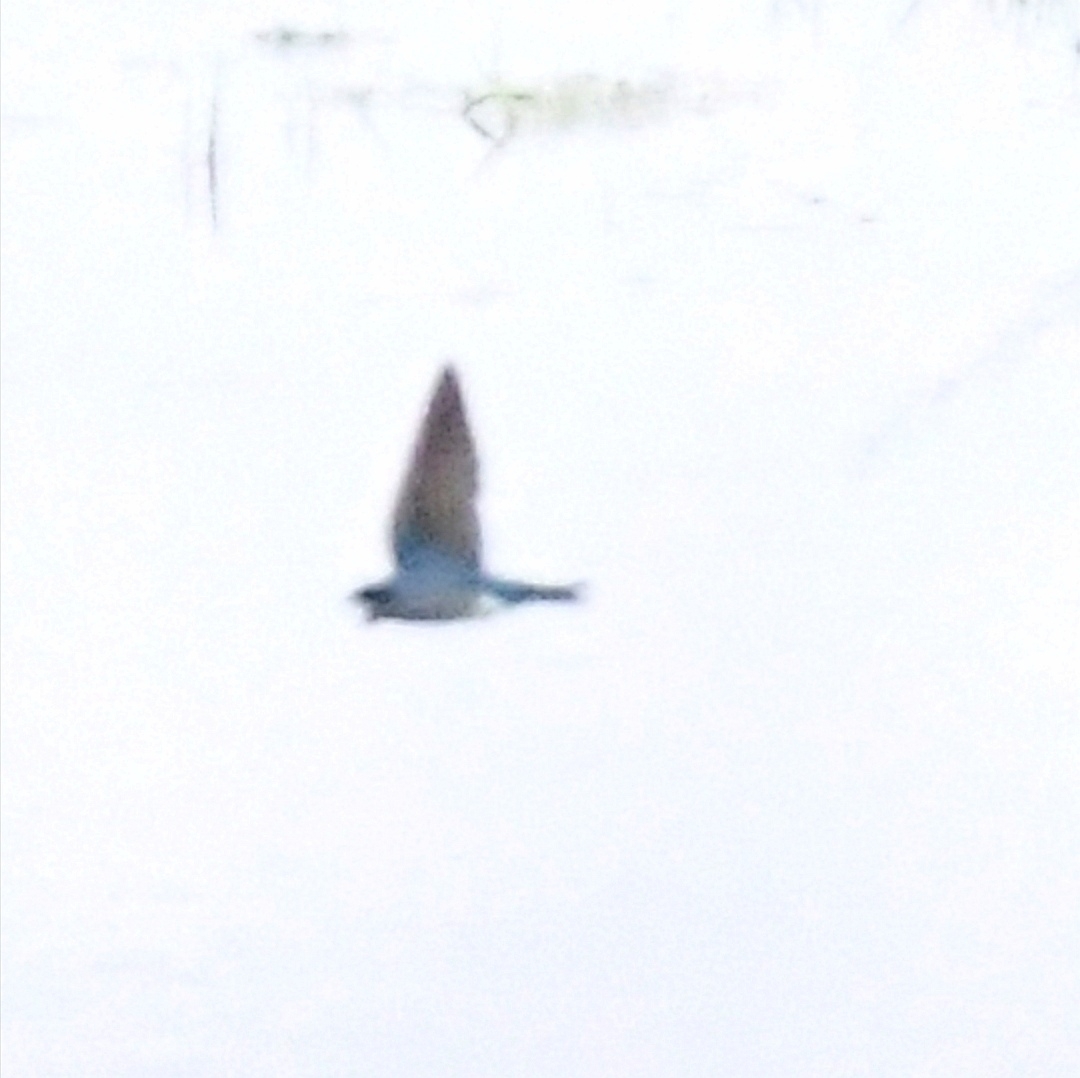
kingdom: Animalia
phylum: Chordata
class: Aves
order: Passeriformes
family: Hirundinidae
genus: Progne
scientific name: Progne subis
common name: Purple martin
